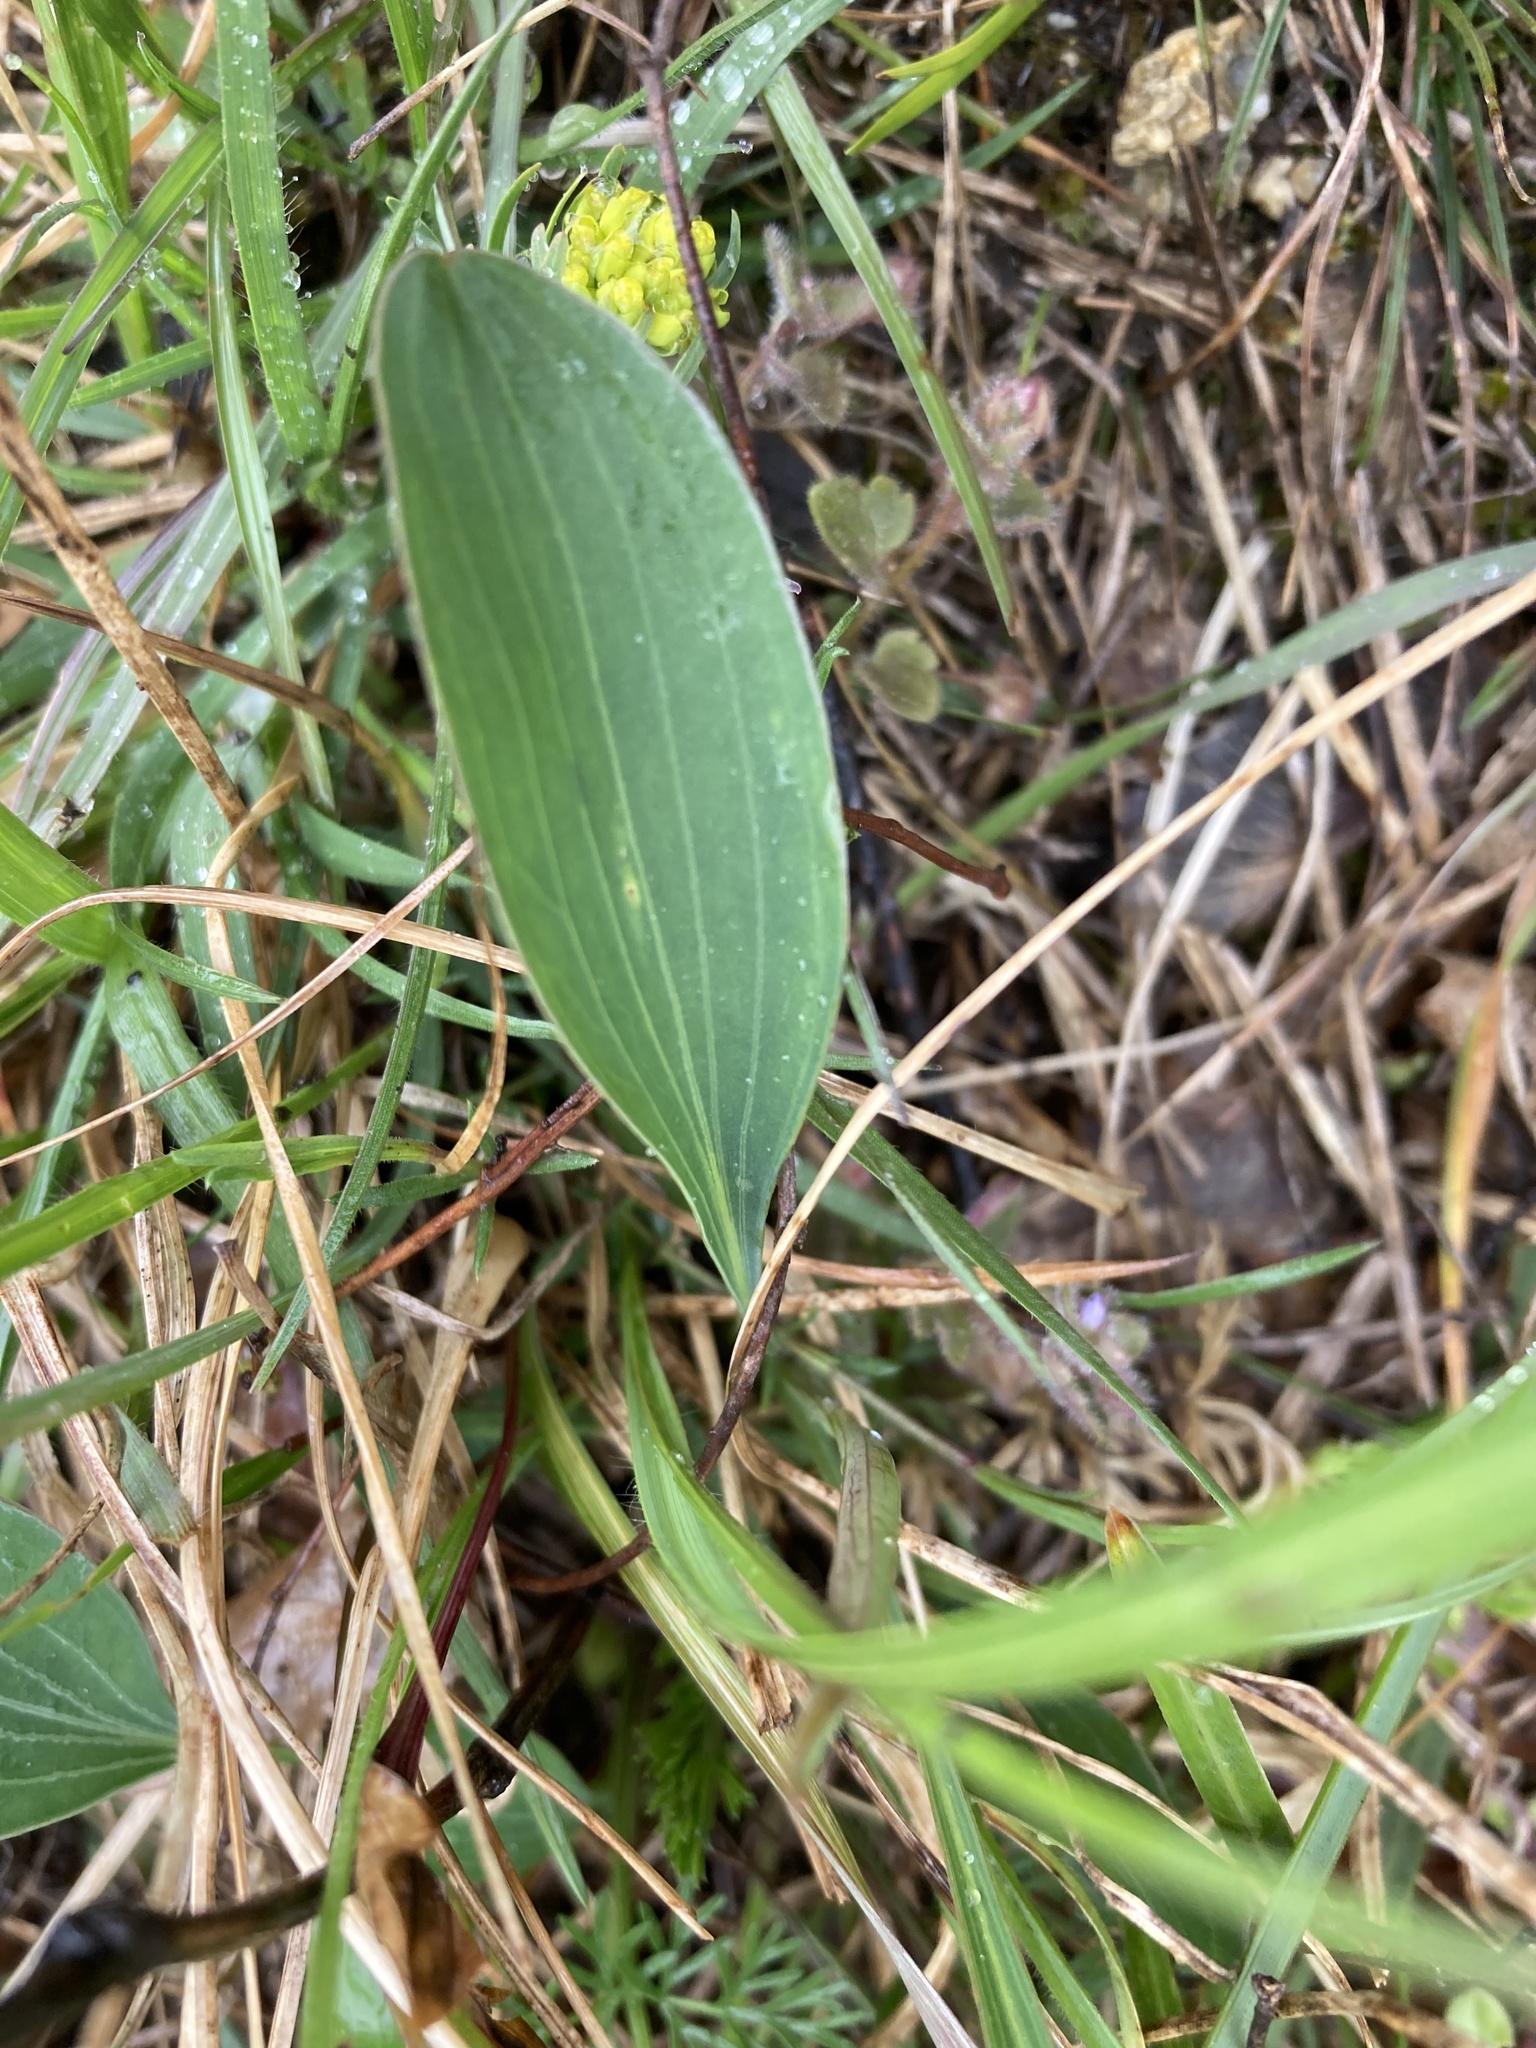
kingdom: Plantae
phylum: Tracheophyta
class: Magnoliopsida
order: Apiales
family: Apiaceae
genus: Bupleurum
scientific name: Bupleurum falcatum
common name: Sickle-leaved hare's-ear
